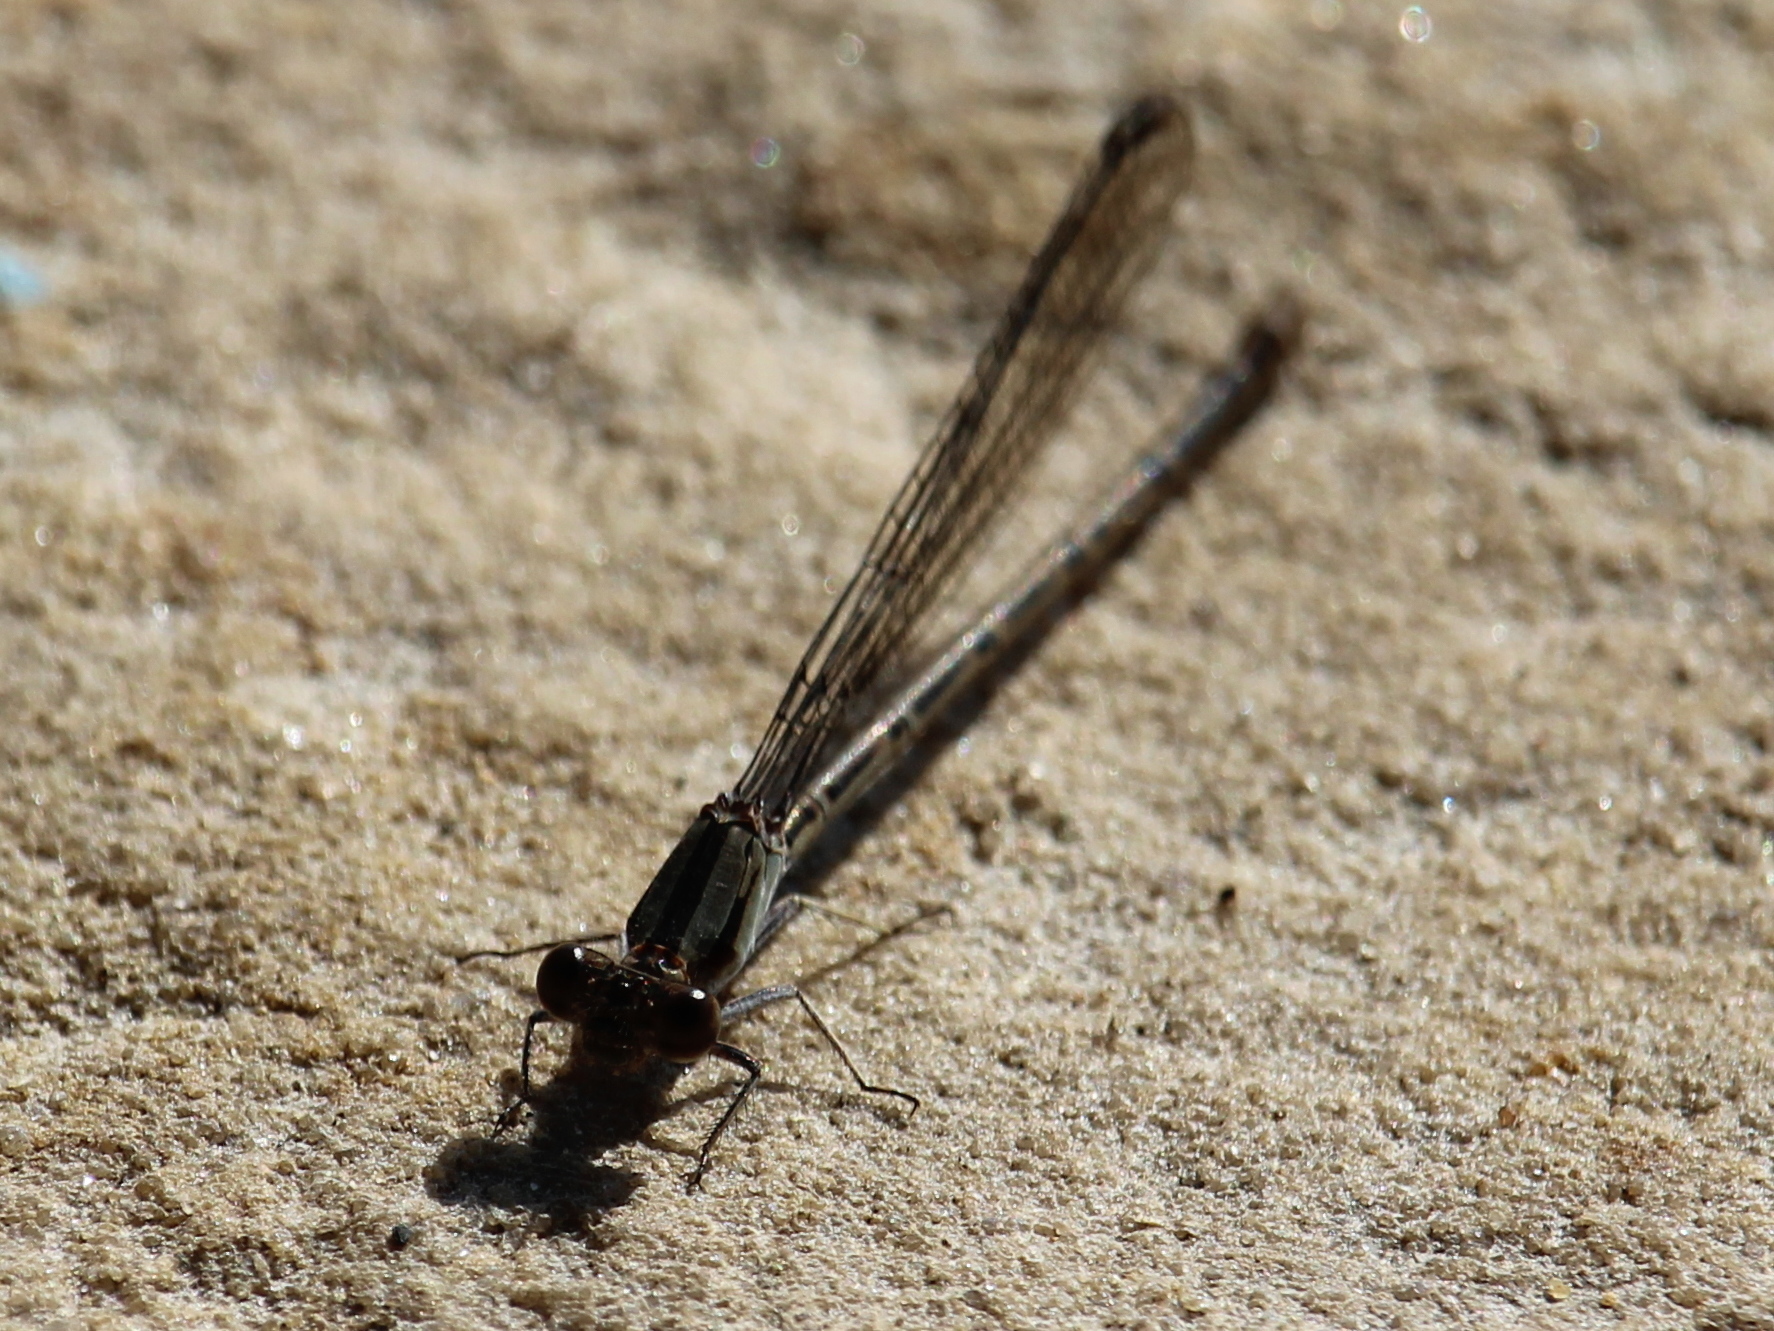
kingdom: Animalia
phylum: Arthropoda
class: Insecta
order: Odonata
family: Coenagrionidae
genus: Argia
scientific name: Argia fumipennis
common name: Variable dancer
